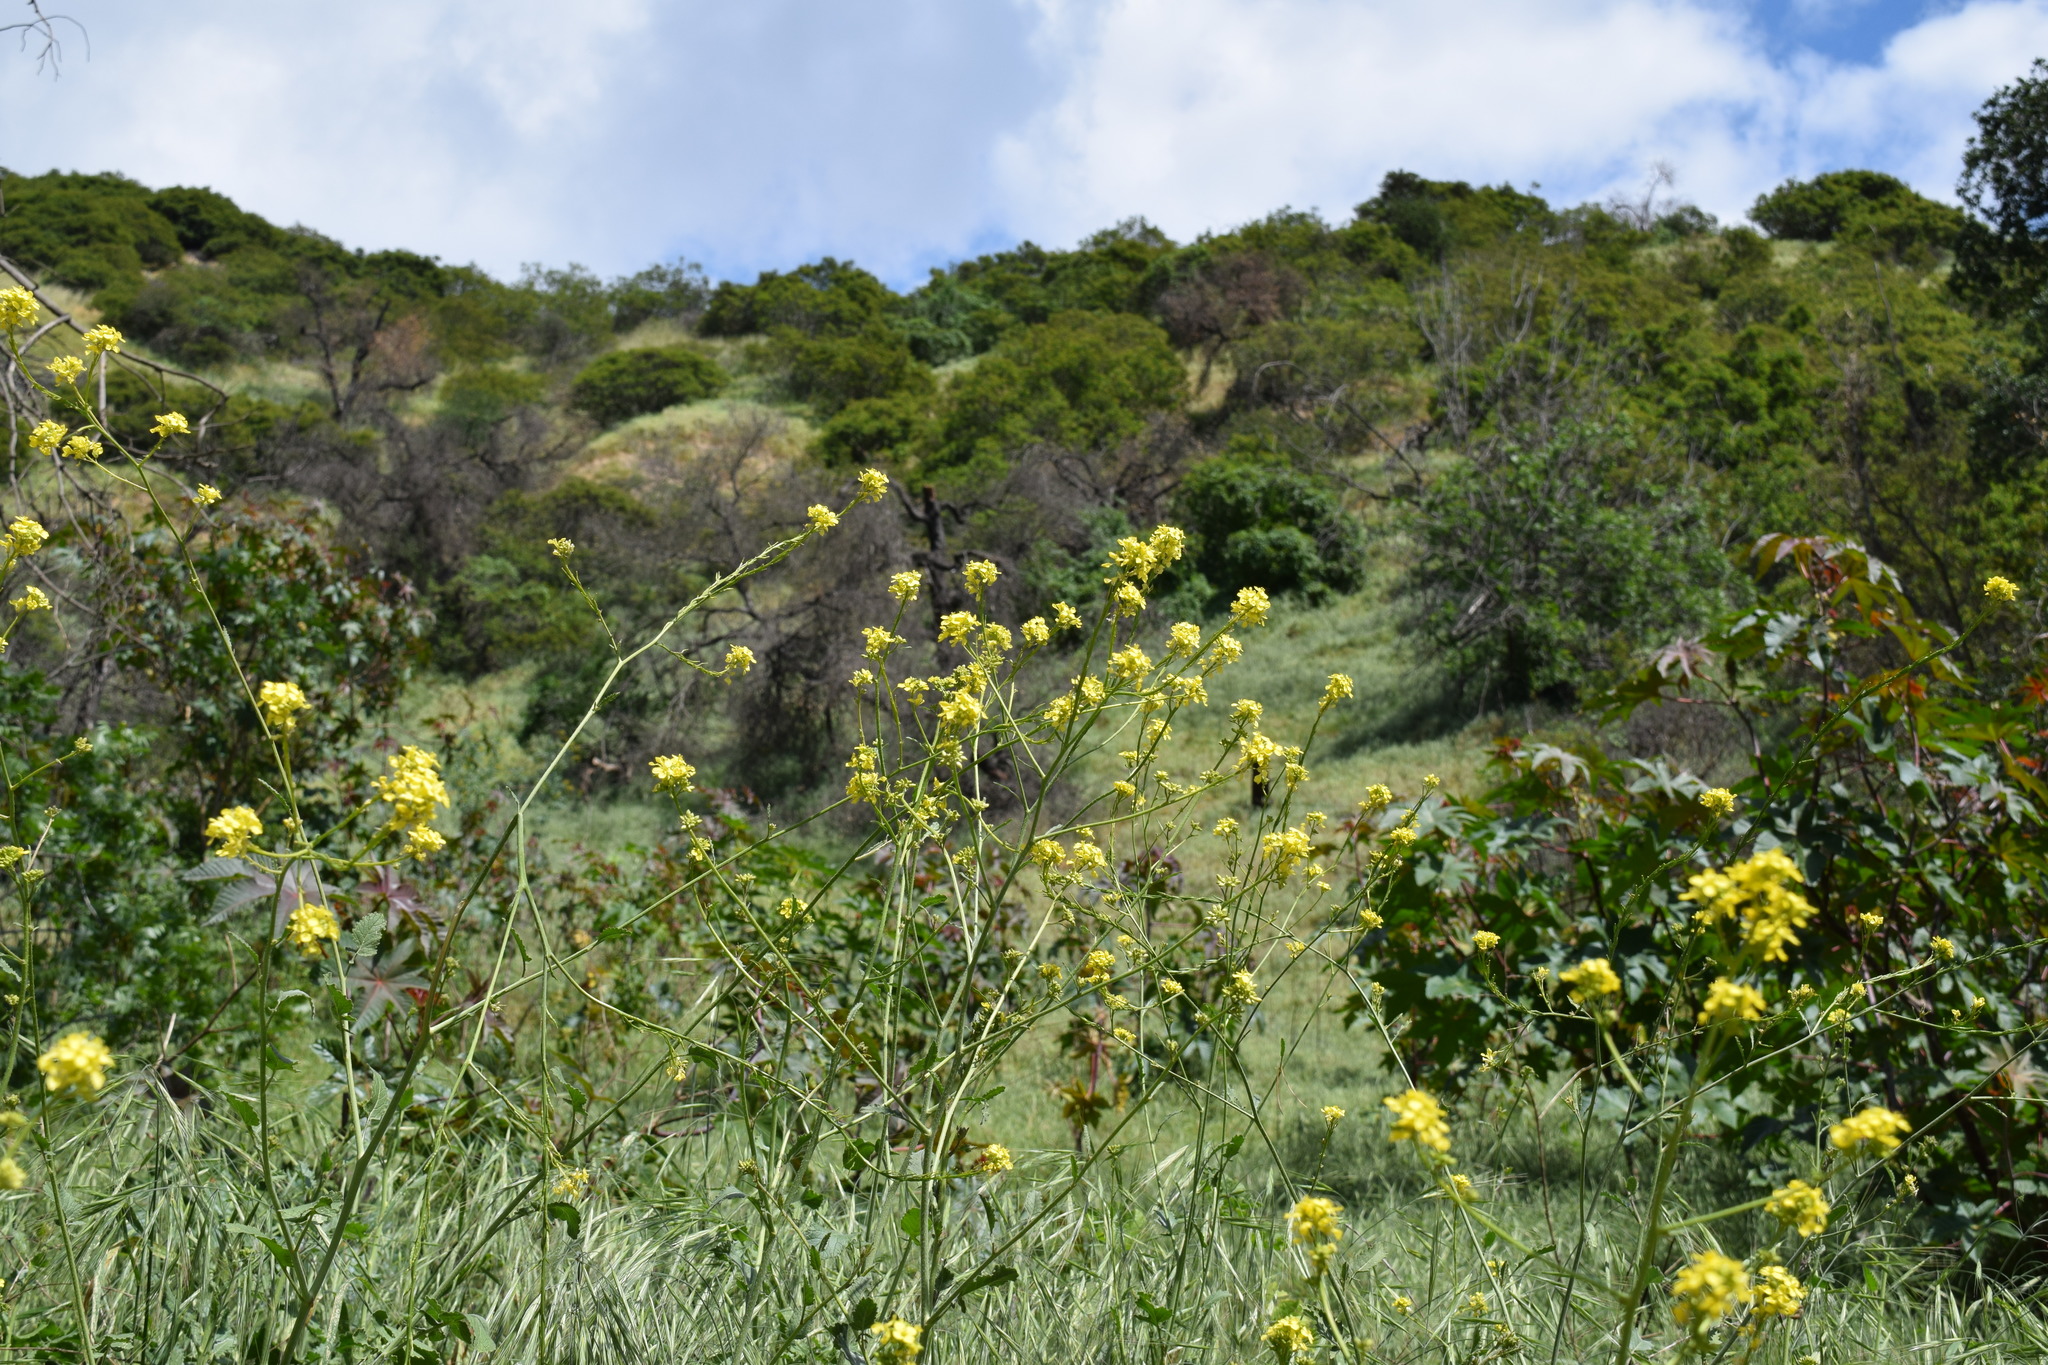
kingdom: Plantae
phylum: Tracheophyta
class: Magnoliopsida
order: Brassicales
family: Brassicaceae
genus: Hirschfeldia
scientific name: Hirschfeldia incana
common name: Hoary mustard
